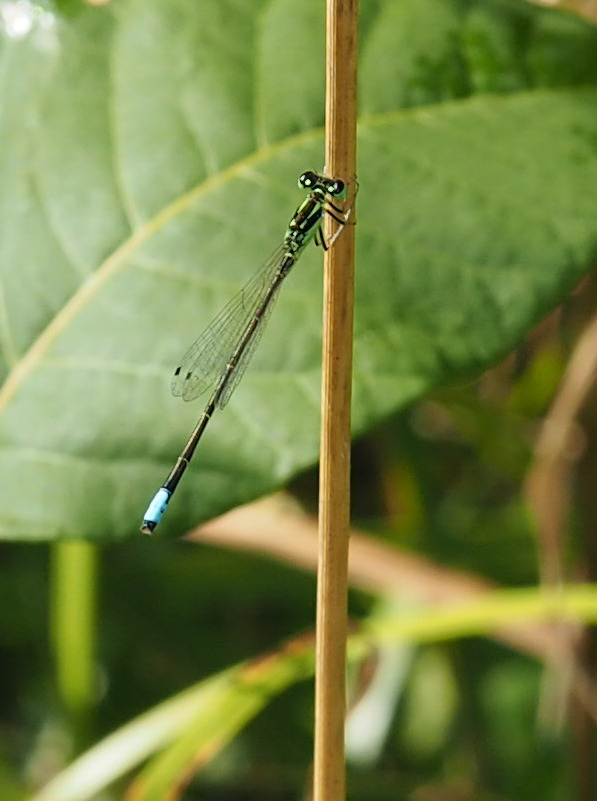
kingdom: Animalia
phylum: Arthropoda
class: Insecta
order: Odonata
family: Coenagrionidae
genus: Ischnura
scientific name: Ischnura verticalis
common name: Eastern forktail
